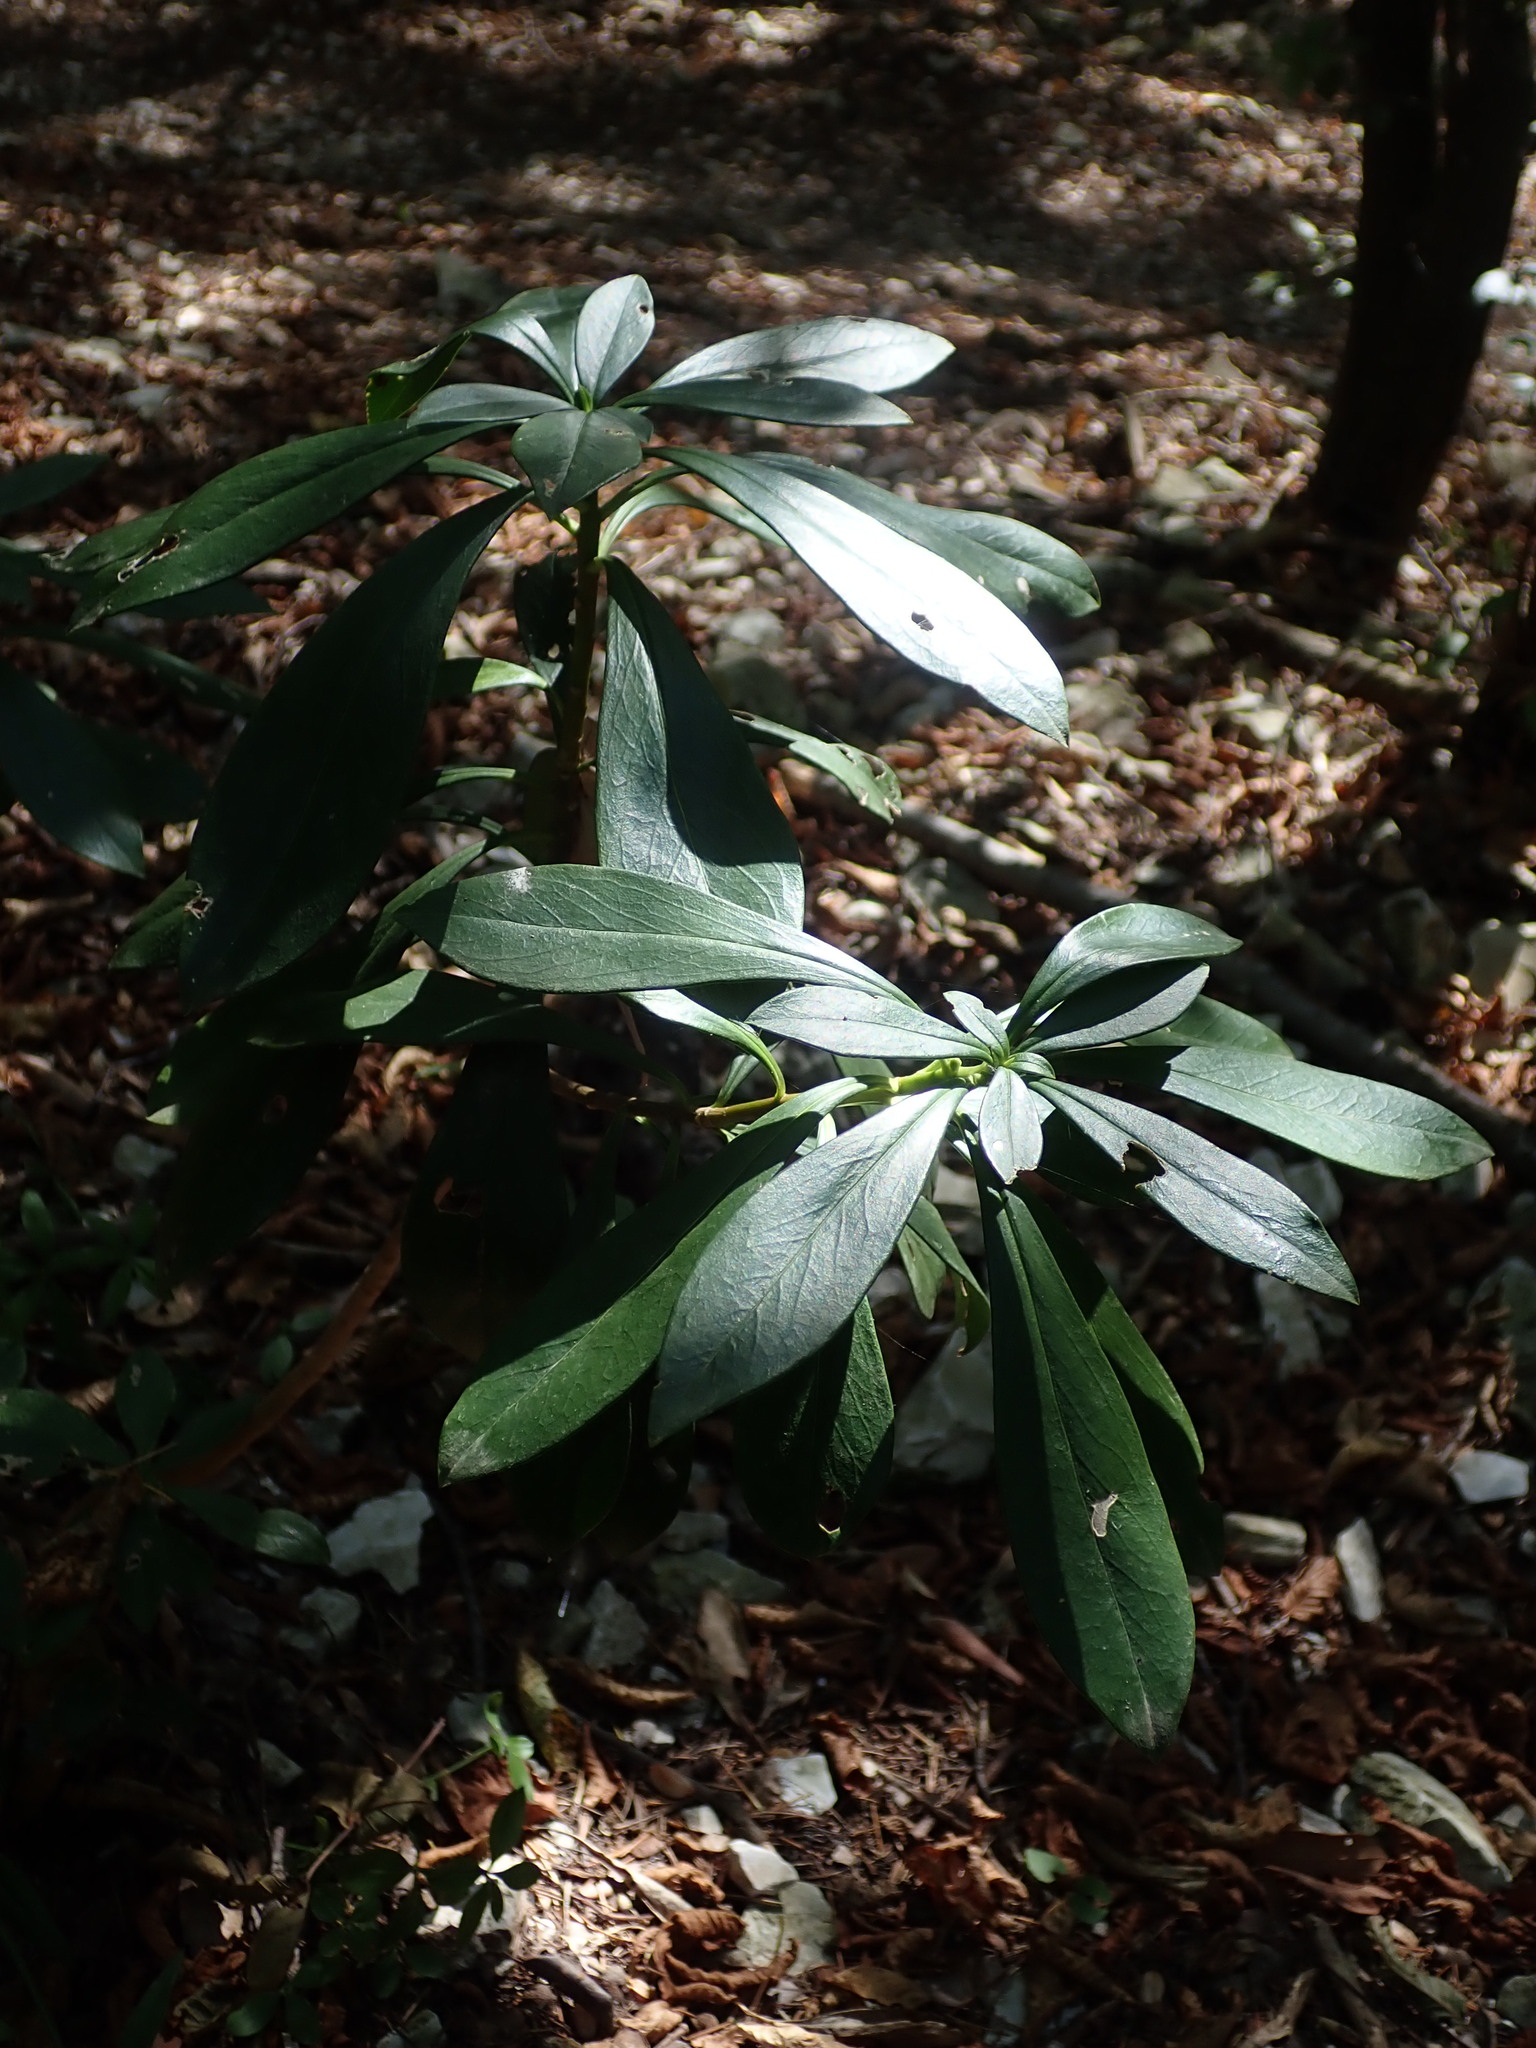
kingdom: Plantae
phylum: Tracheophyta
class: Magnoliopsida
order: Malvales
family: Thymelaeaceae
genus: Daphne
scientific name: Daphne laureola
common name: Spurge-laurel
